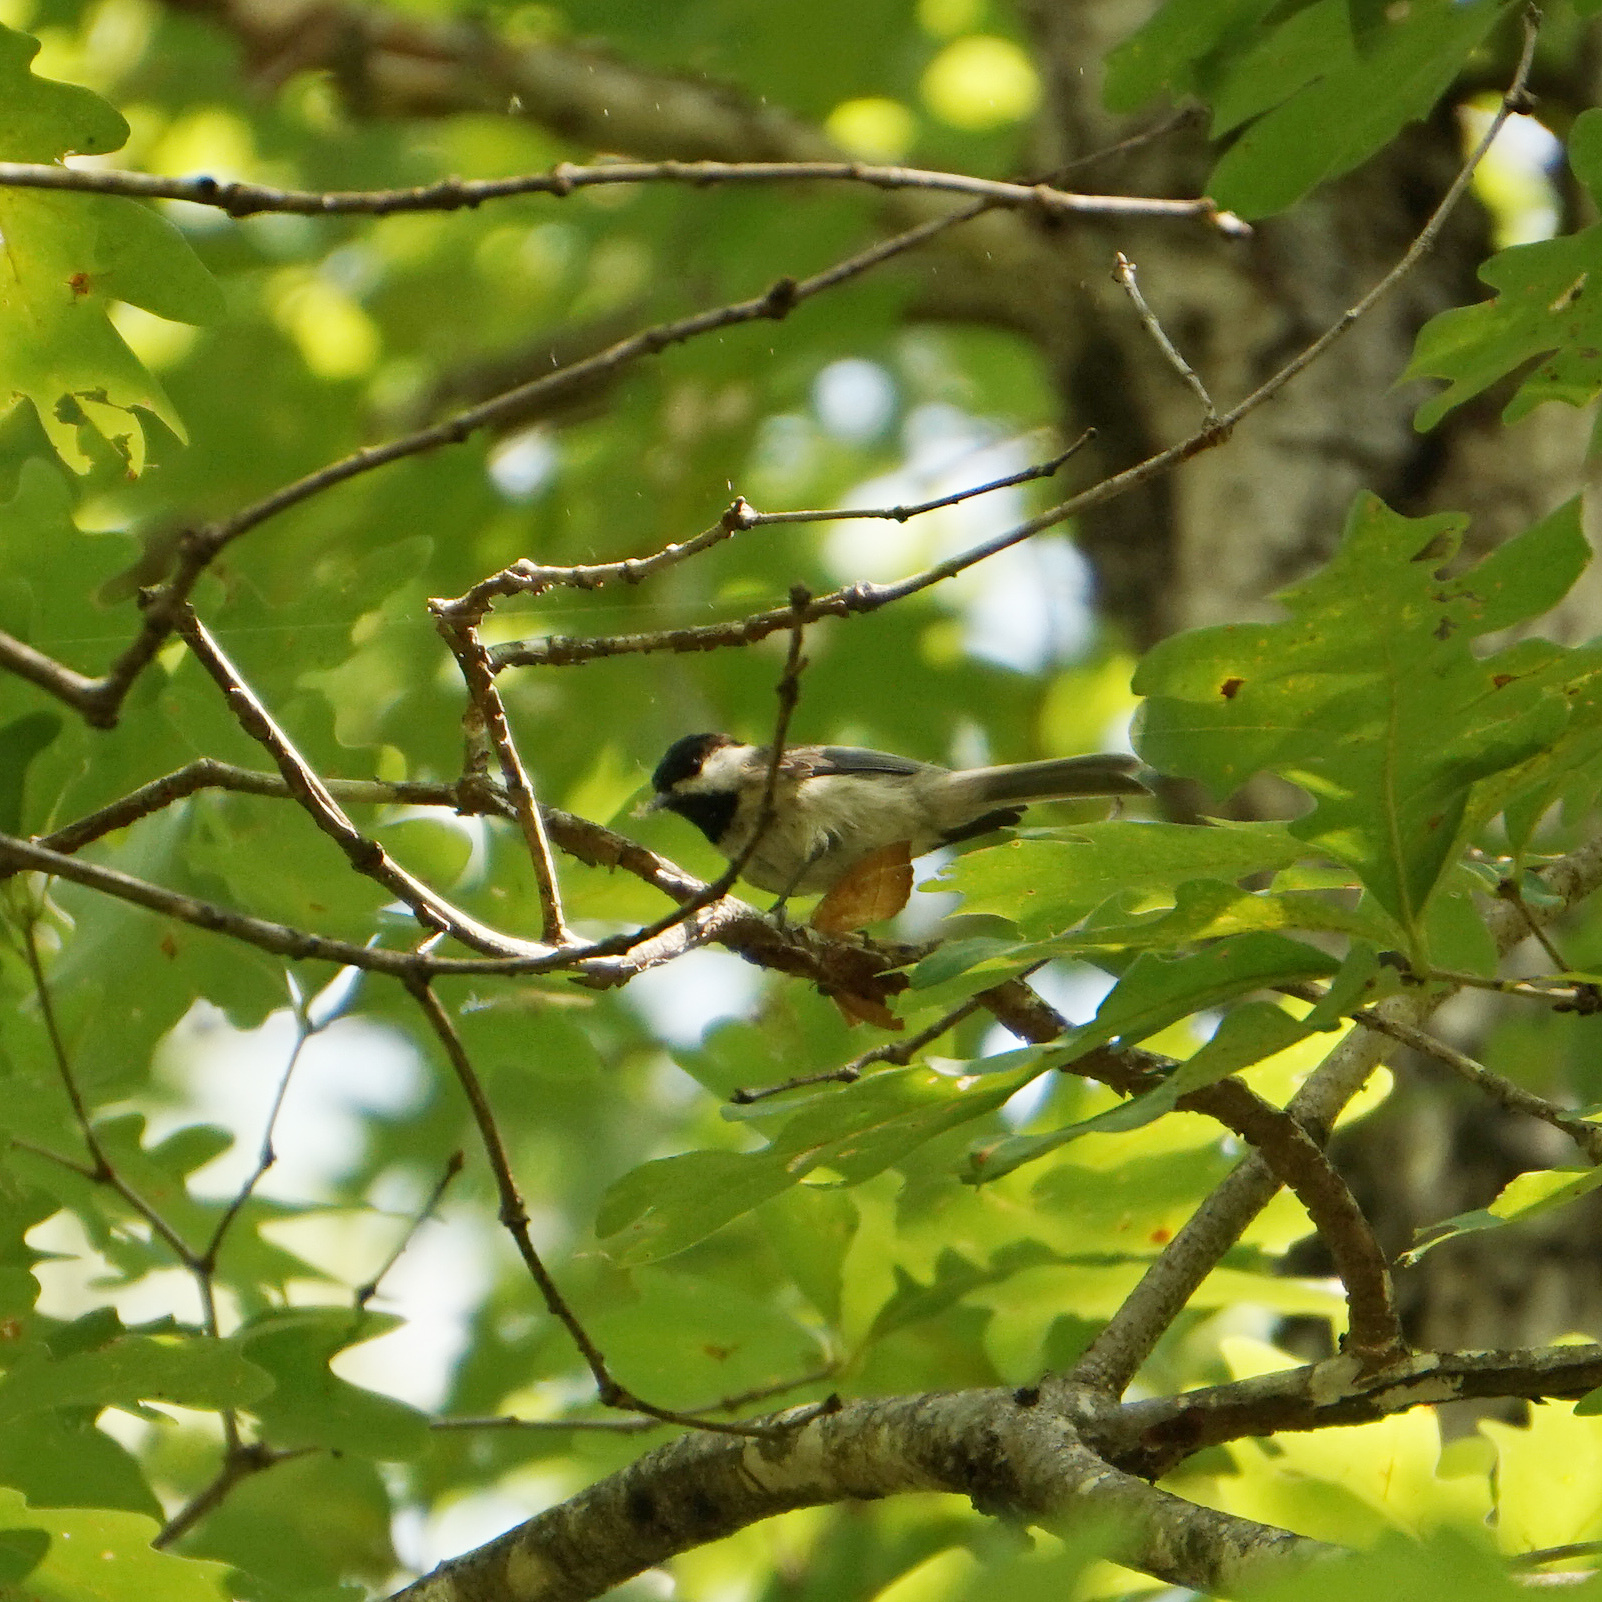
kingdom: Animalia
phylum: Chordata
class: Aves
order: Passeriformes
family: Paridae
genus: Poecile
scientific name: Poecile carolinensis
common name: Carolina chickadee
